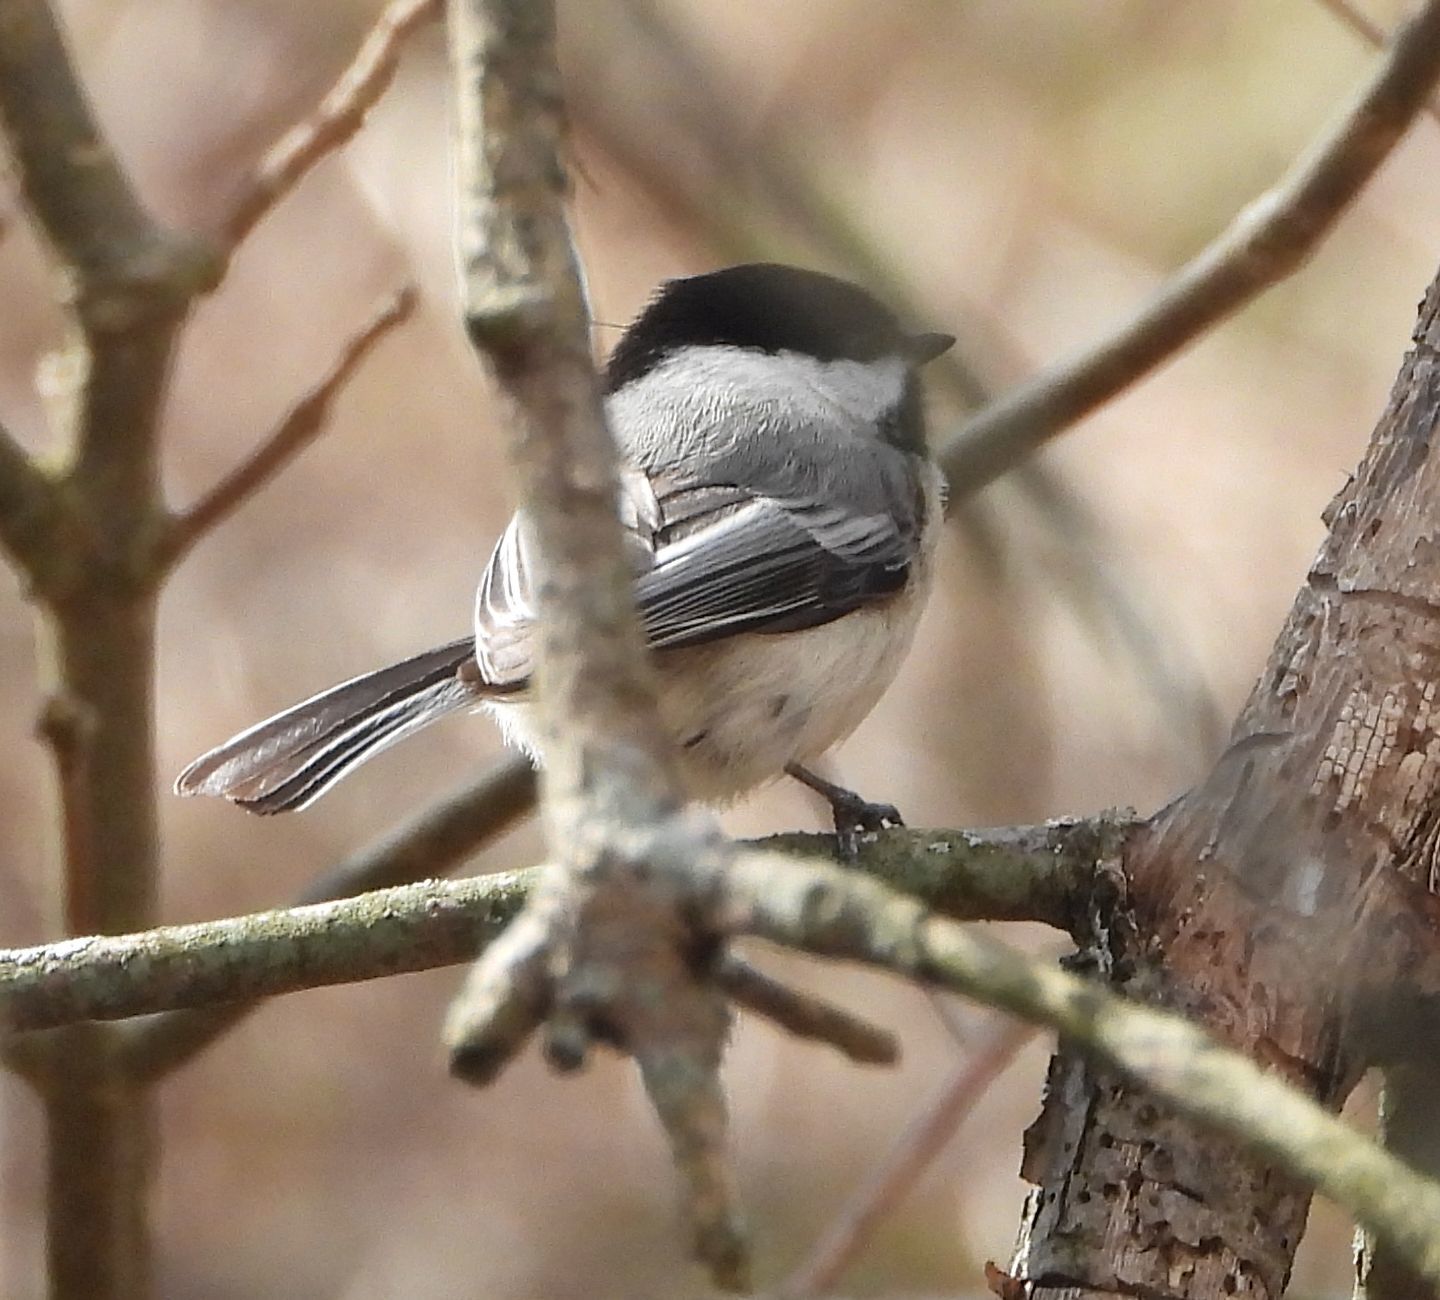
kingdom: Animalia
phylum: Chordata
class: Aves
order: Passeriformes
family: Paridae
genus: Poecile
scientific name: Poecile atricapillus
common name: Black-capped chickadee
